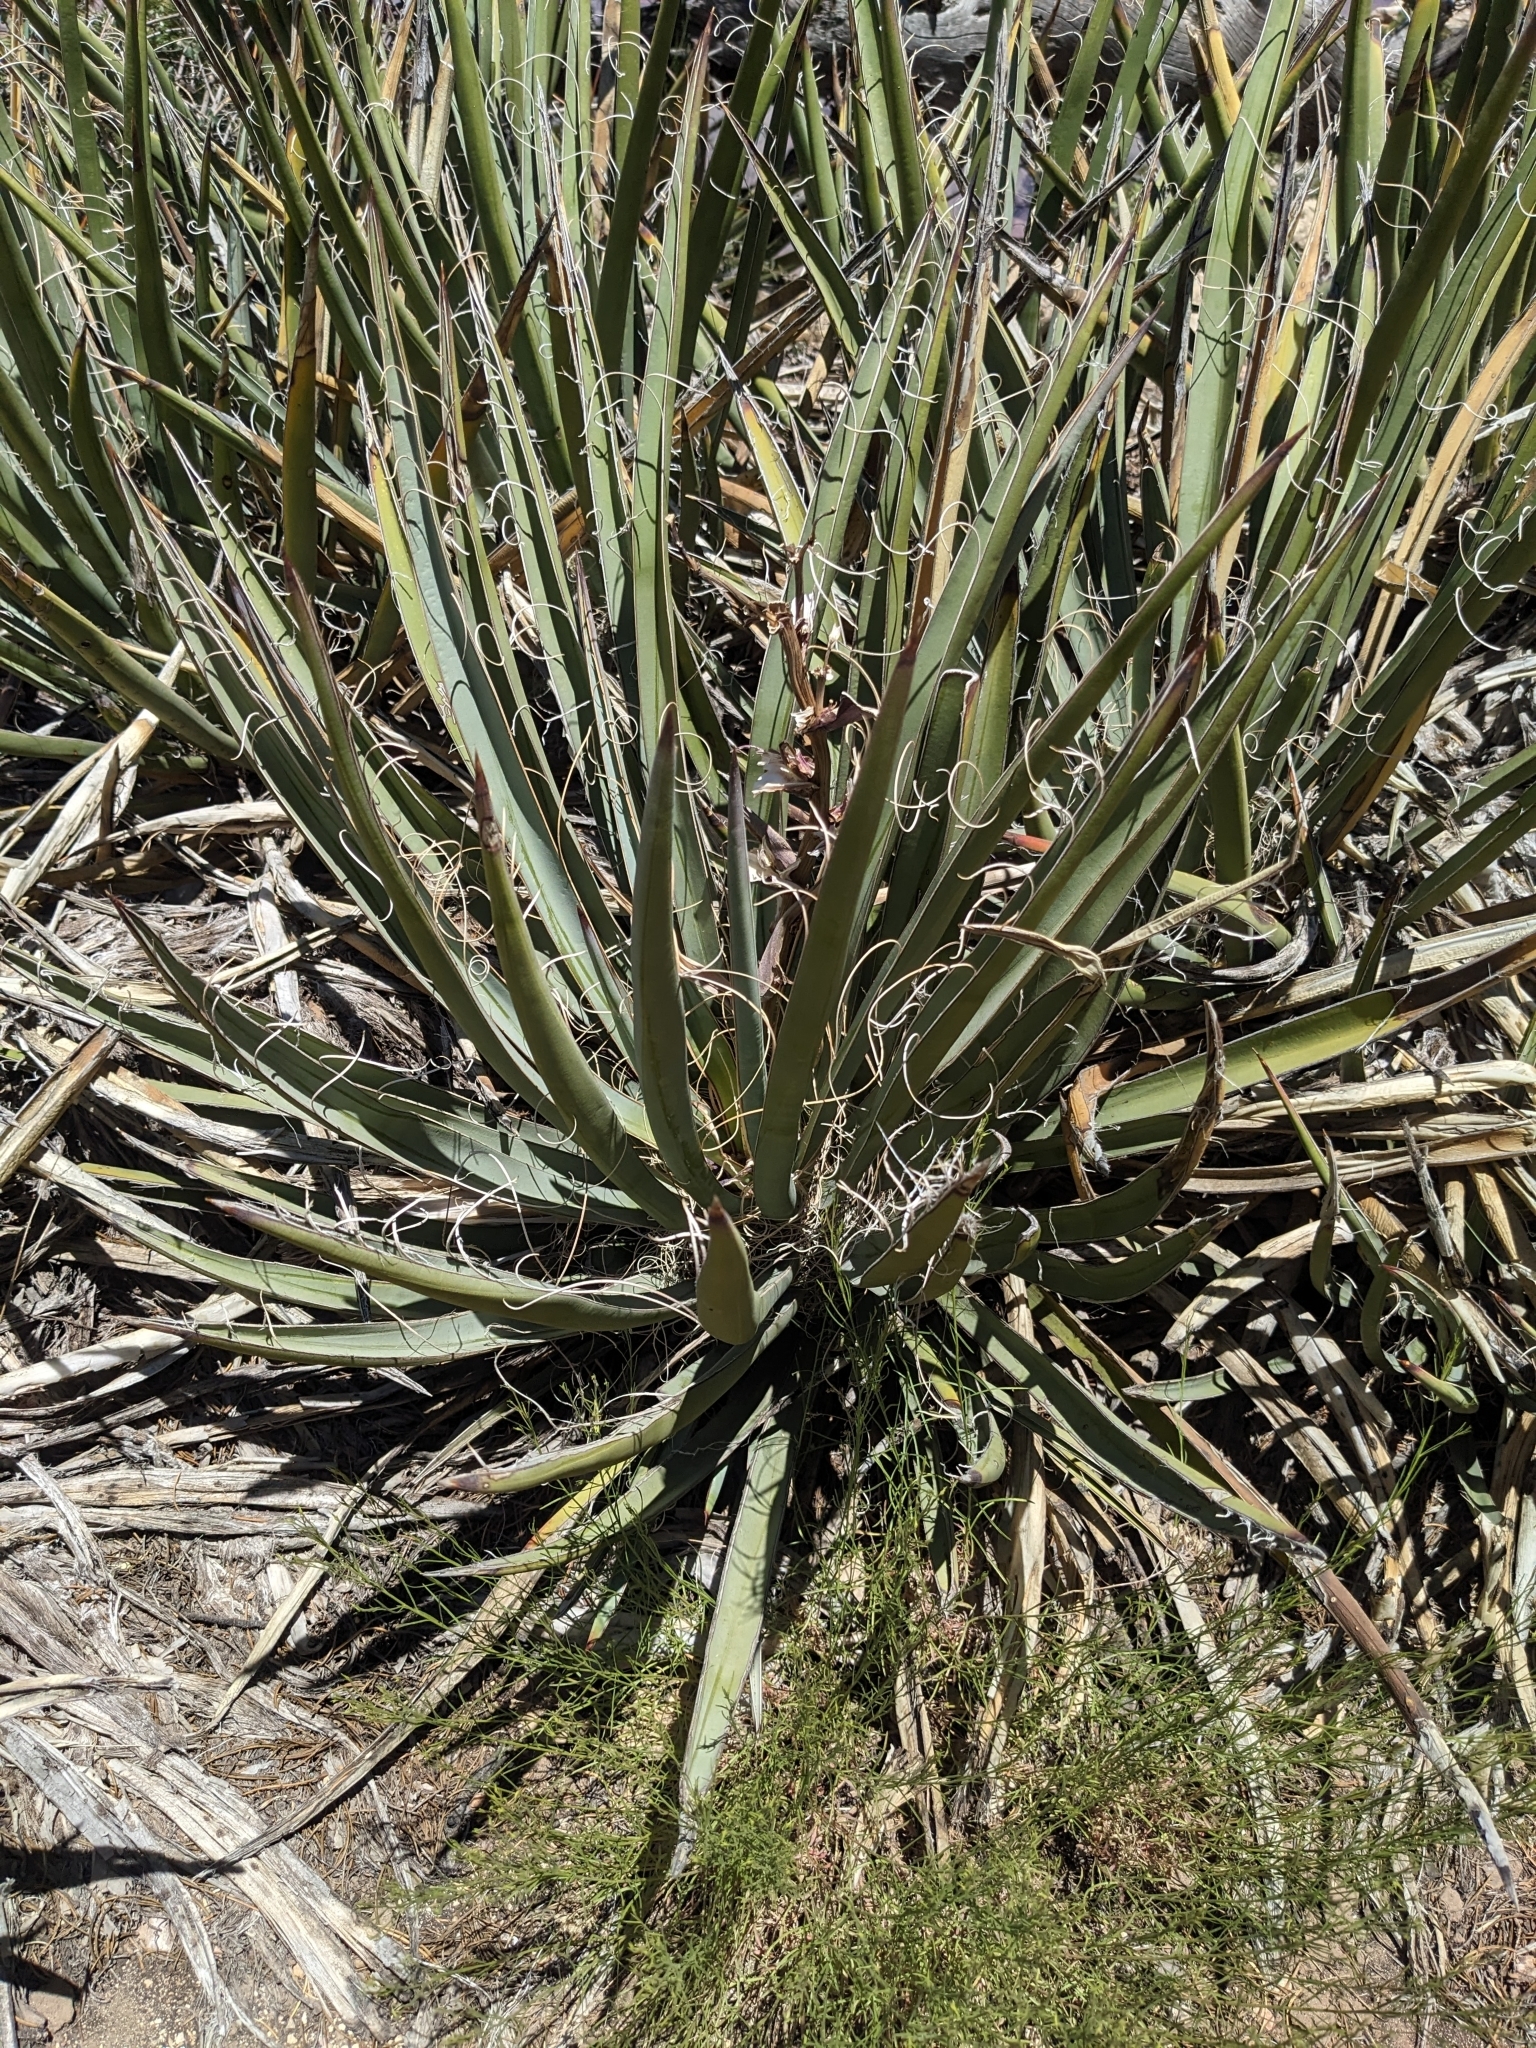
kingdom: Plantae
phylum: Tracheophyta
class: Liliopsida
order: Asparagales
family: Asparagaceae
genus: Yucca
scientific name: Yucca baccata
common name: Banana yucca
